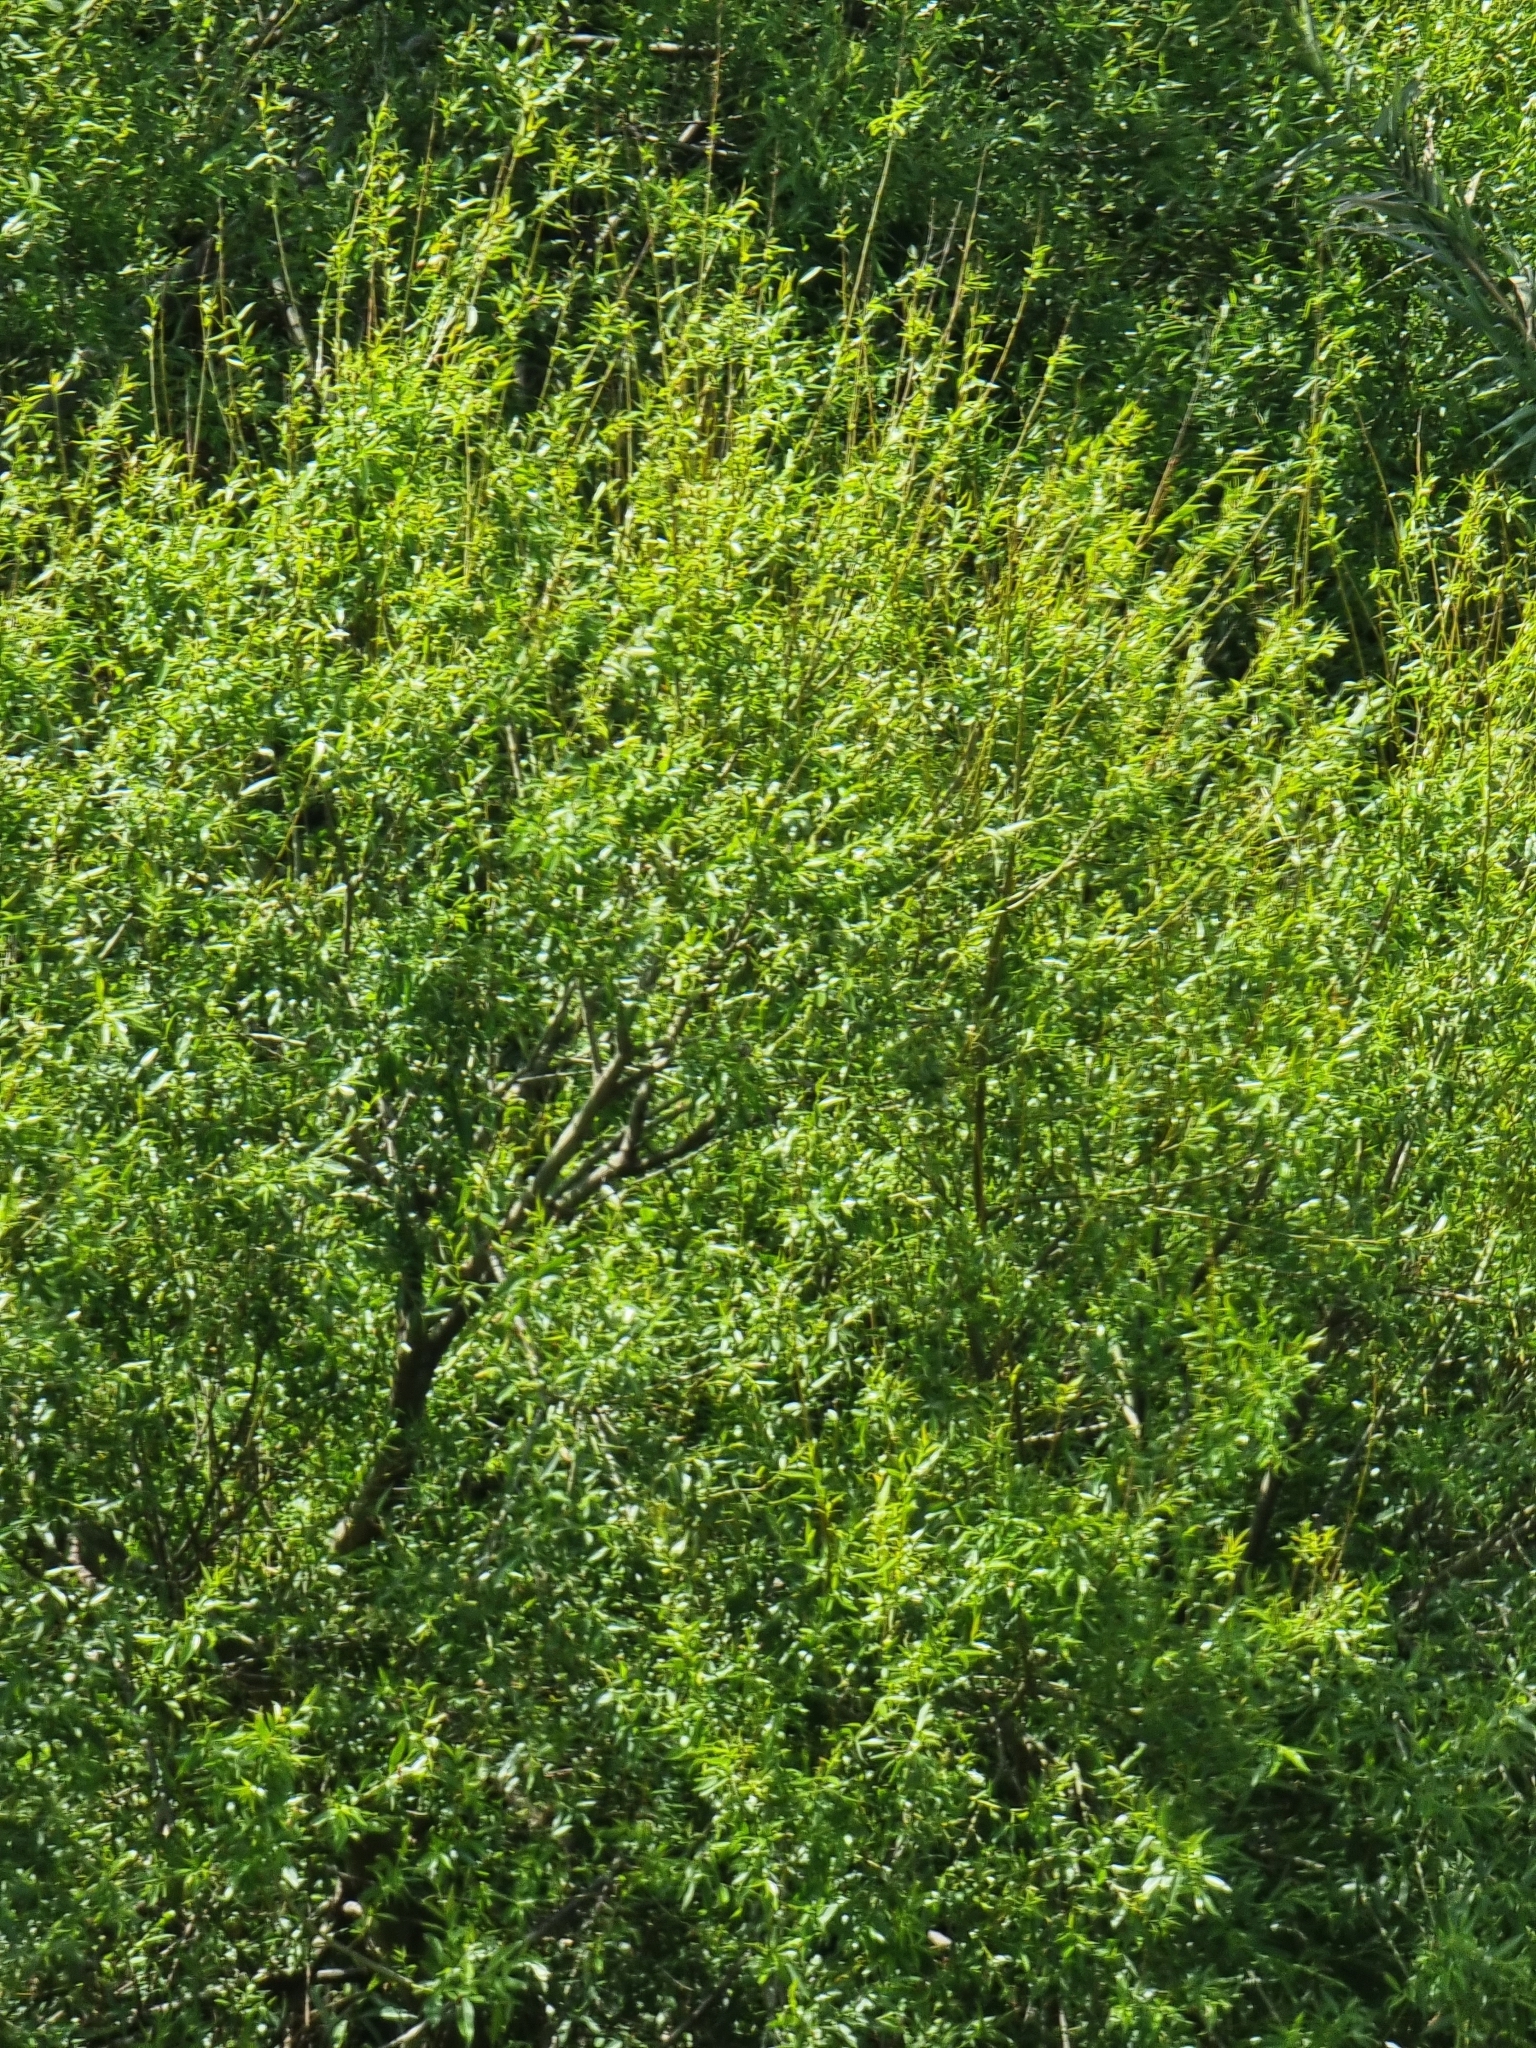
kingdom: Plantae
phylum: Tracheophyta
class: Magnoliopsida
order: Malpighiales
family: Salicaceae
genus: Salix
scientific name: Salix canariensis
